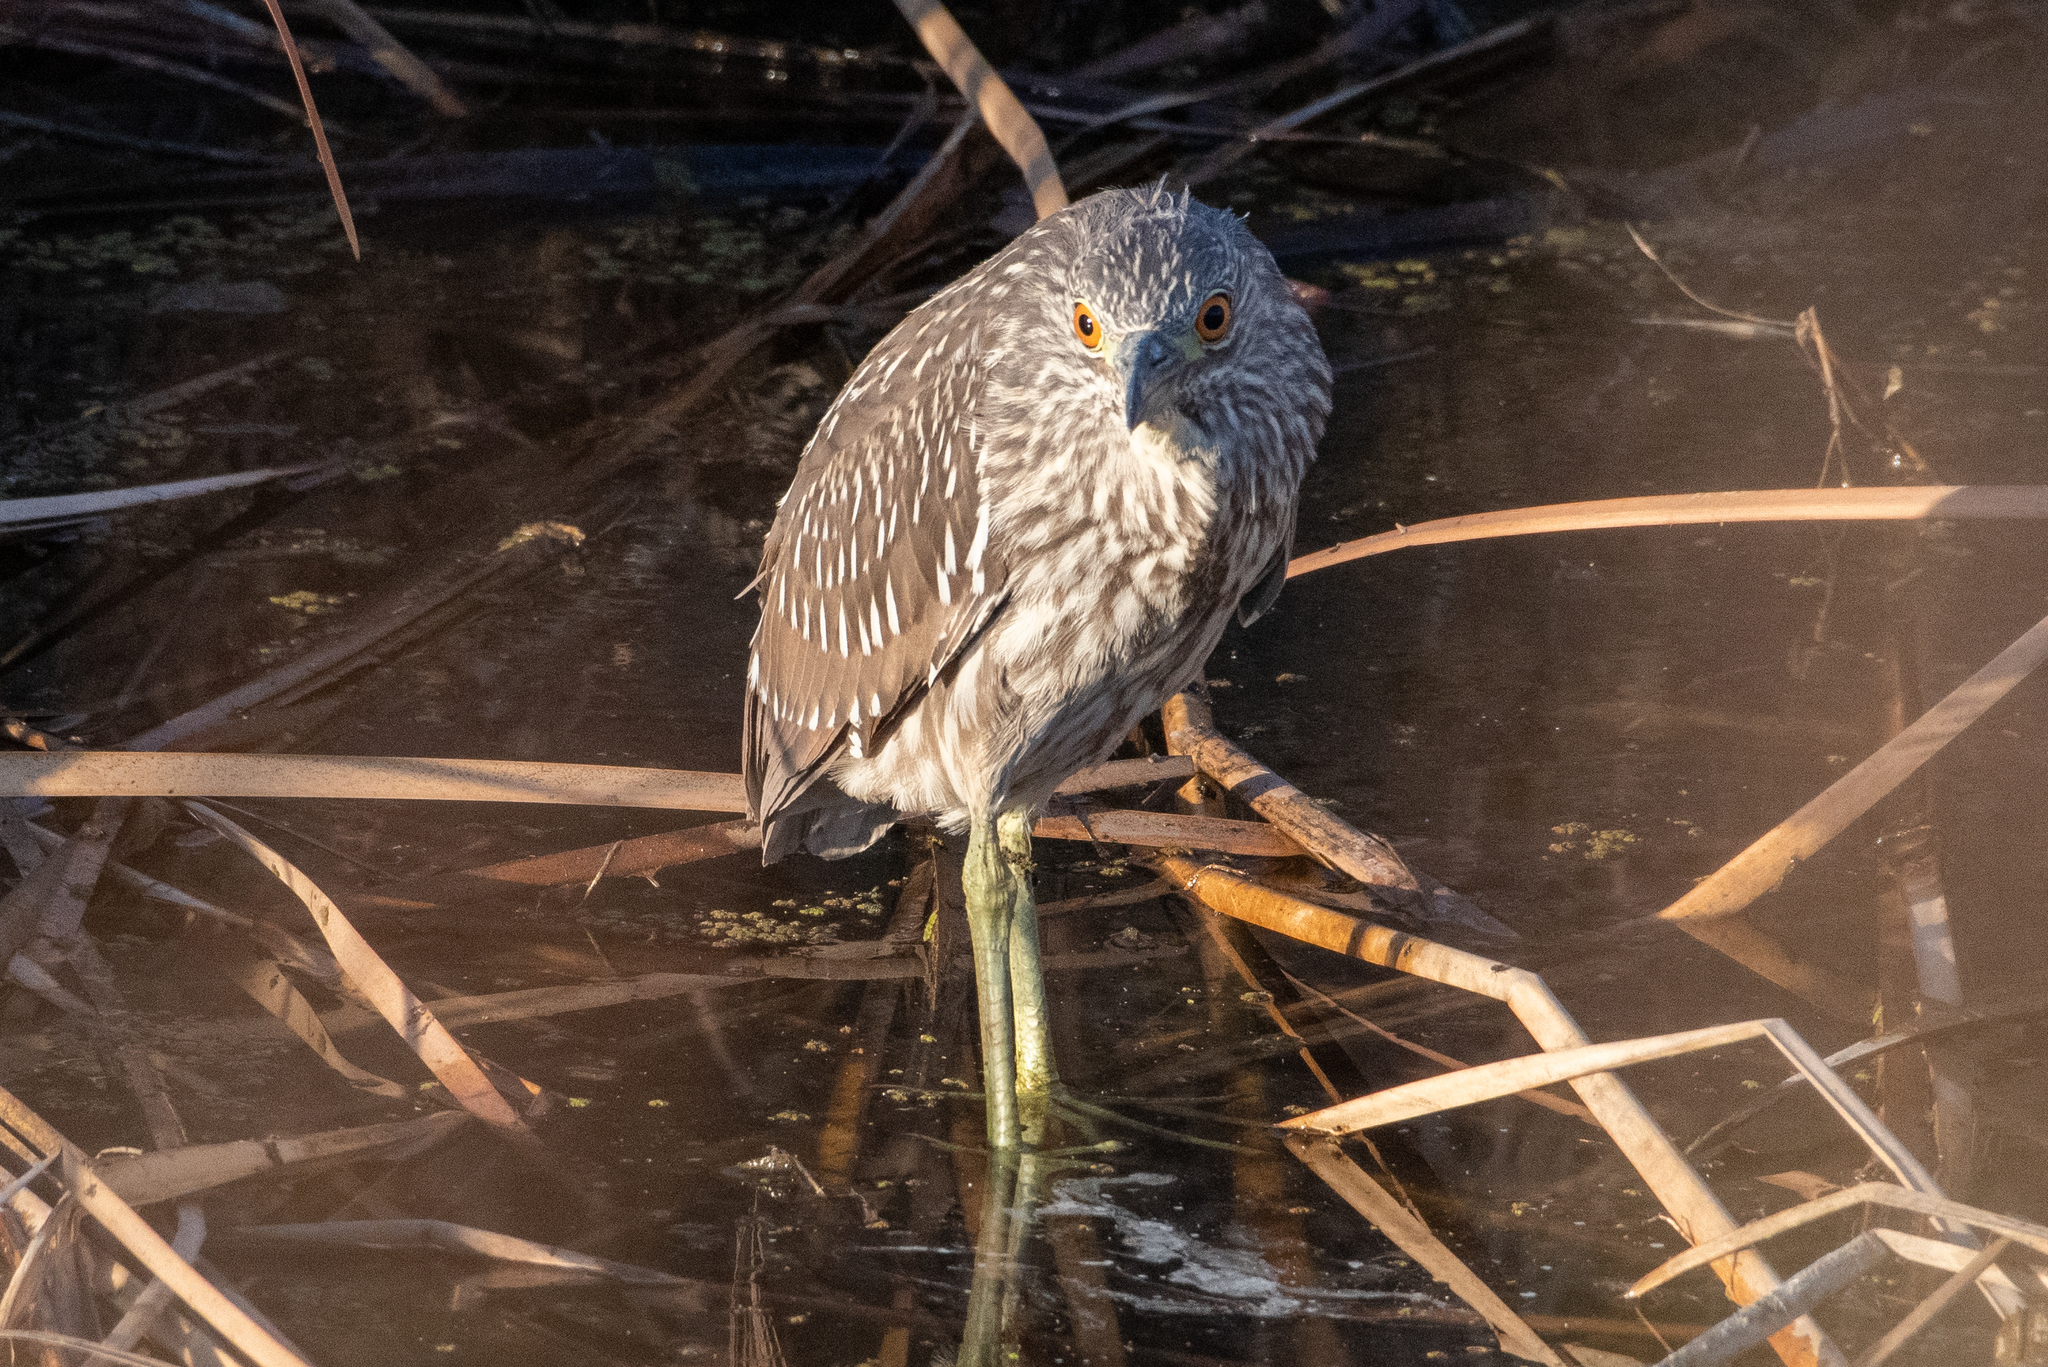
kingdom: Animalia
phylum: Chordata
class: Aves
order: Pelecaniformes
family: Ardeidae
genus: Nycticorax
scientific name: Nycticorax nycticorax
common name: Black-crowned night heron
